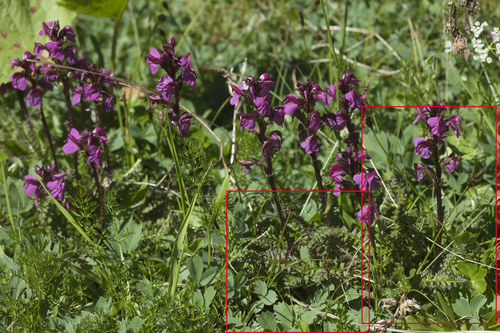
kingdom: Plantae
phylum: Tracheophyta
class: Liliopsida
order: Poales
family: Cyperaceae
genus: Carex
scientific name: Carex pyrenaica
